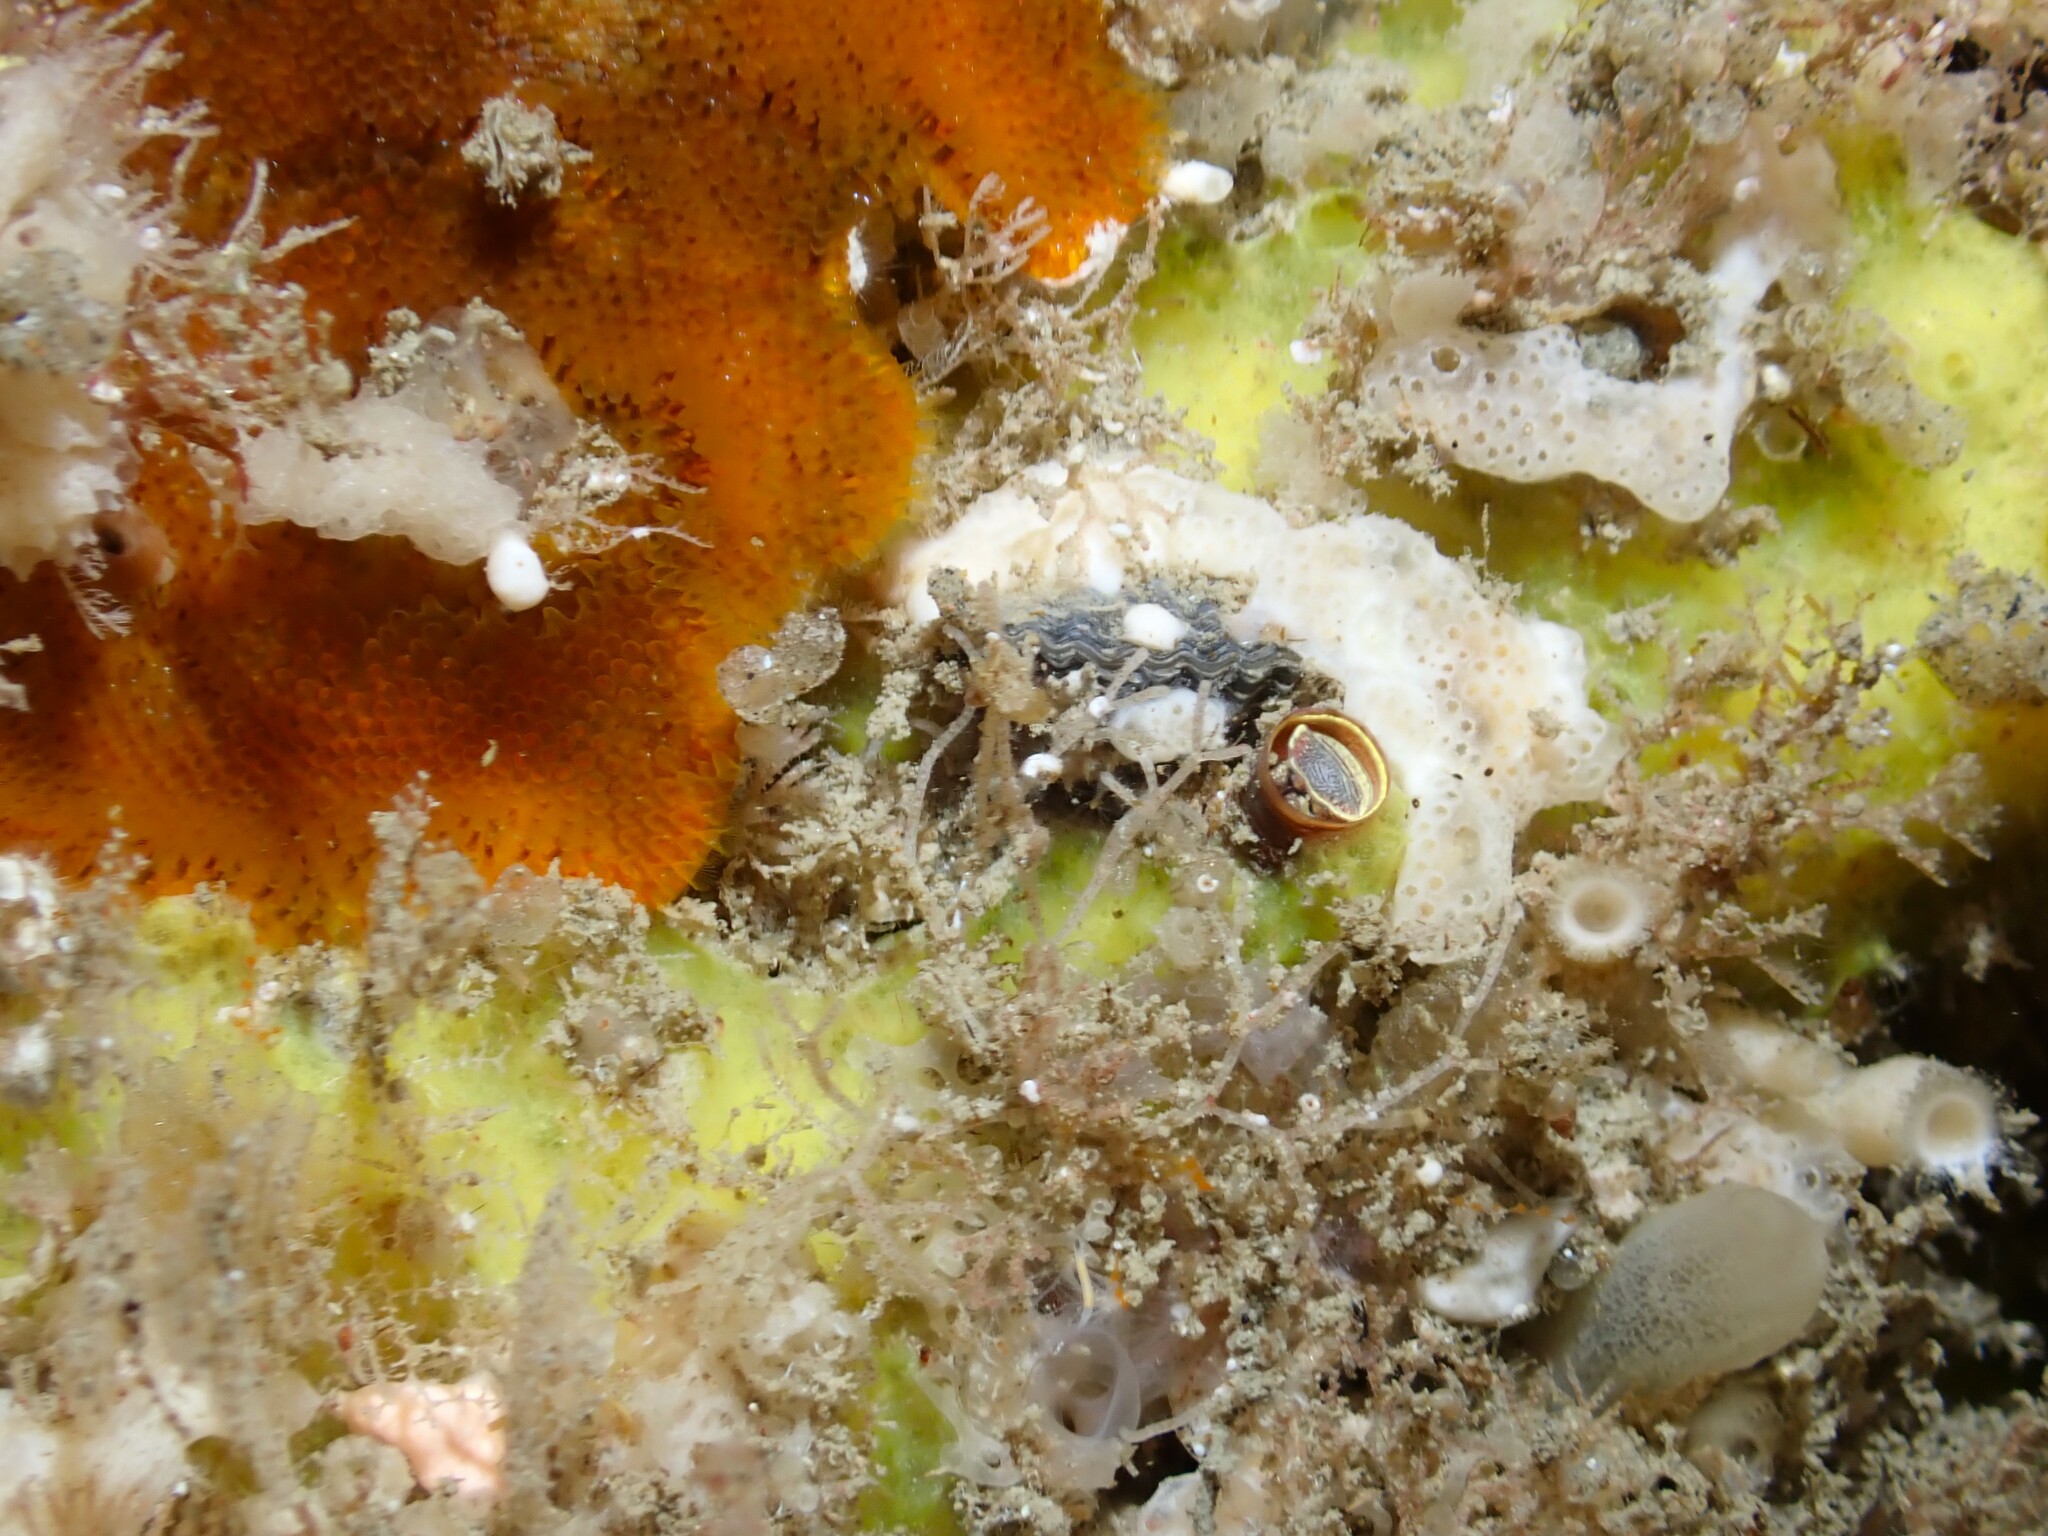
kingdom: Animalia
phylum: Brachiopoda
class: Rhynchonellata
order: Rhynchonellida
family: Notosariidae
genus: Notosaria
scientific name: Notosaria nigricans
